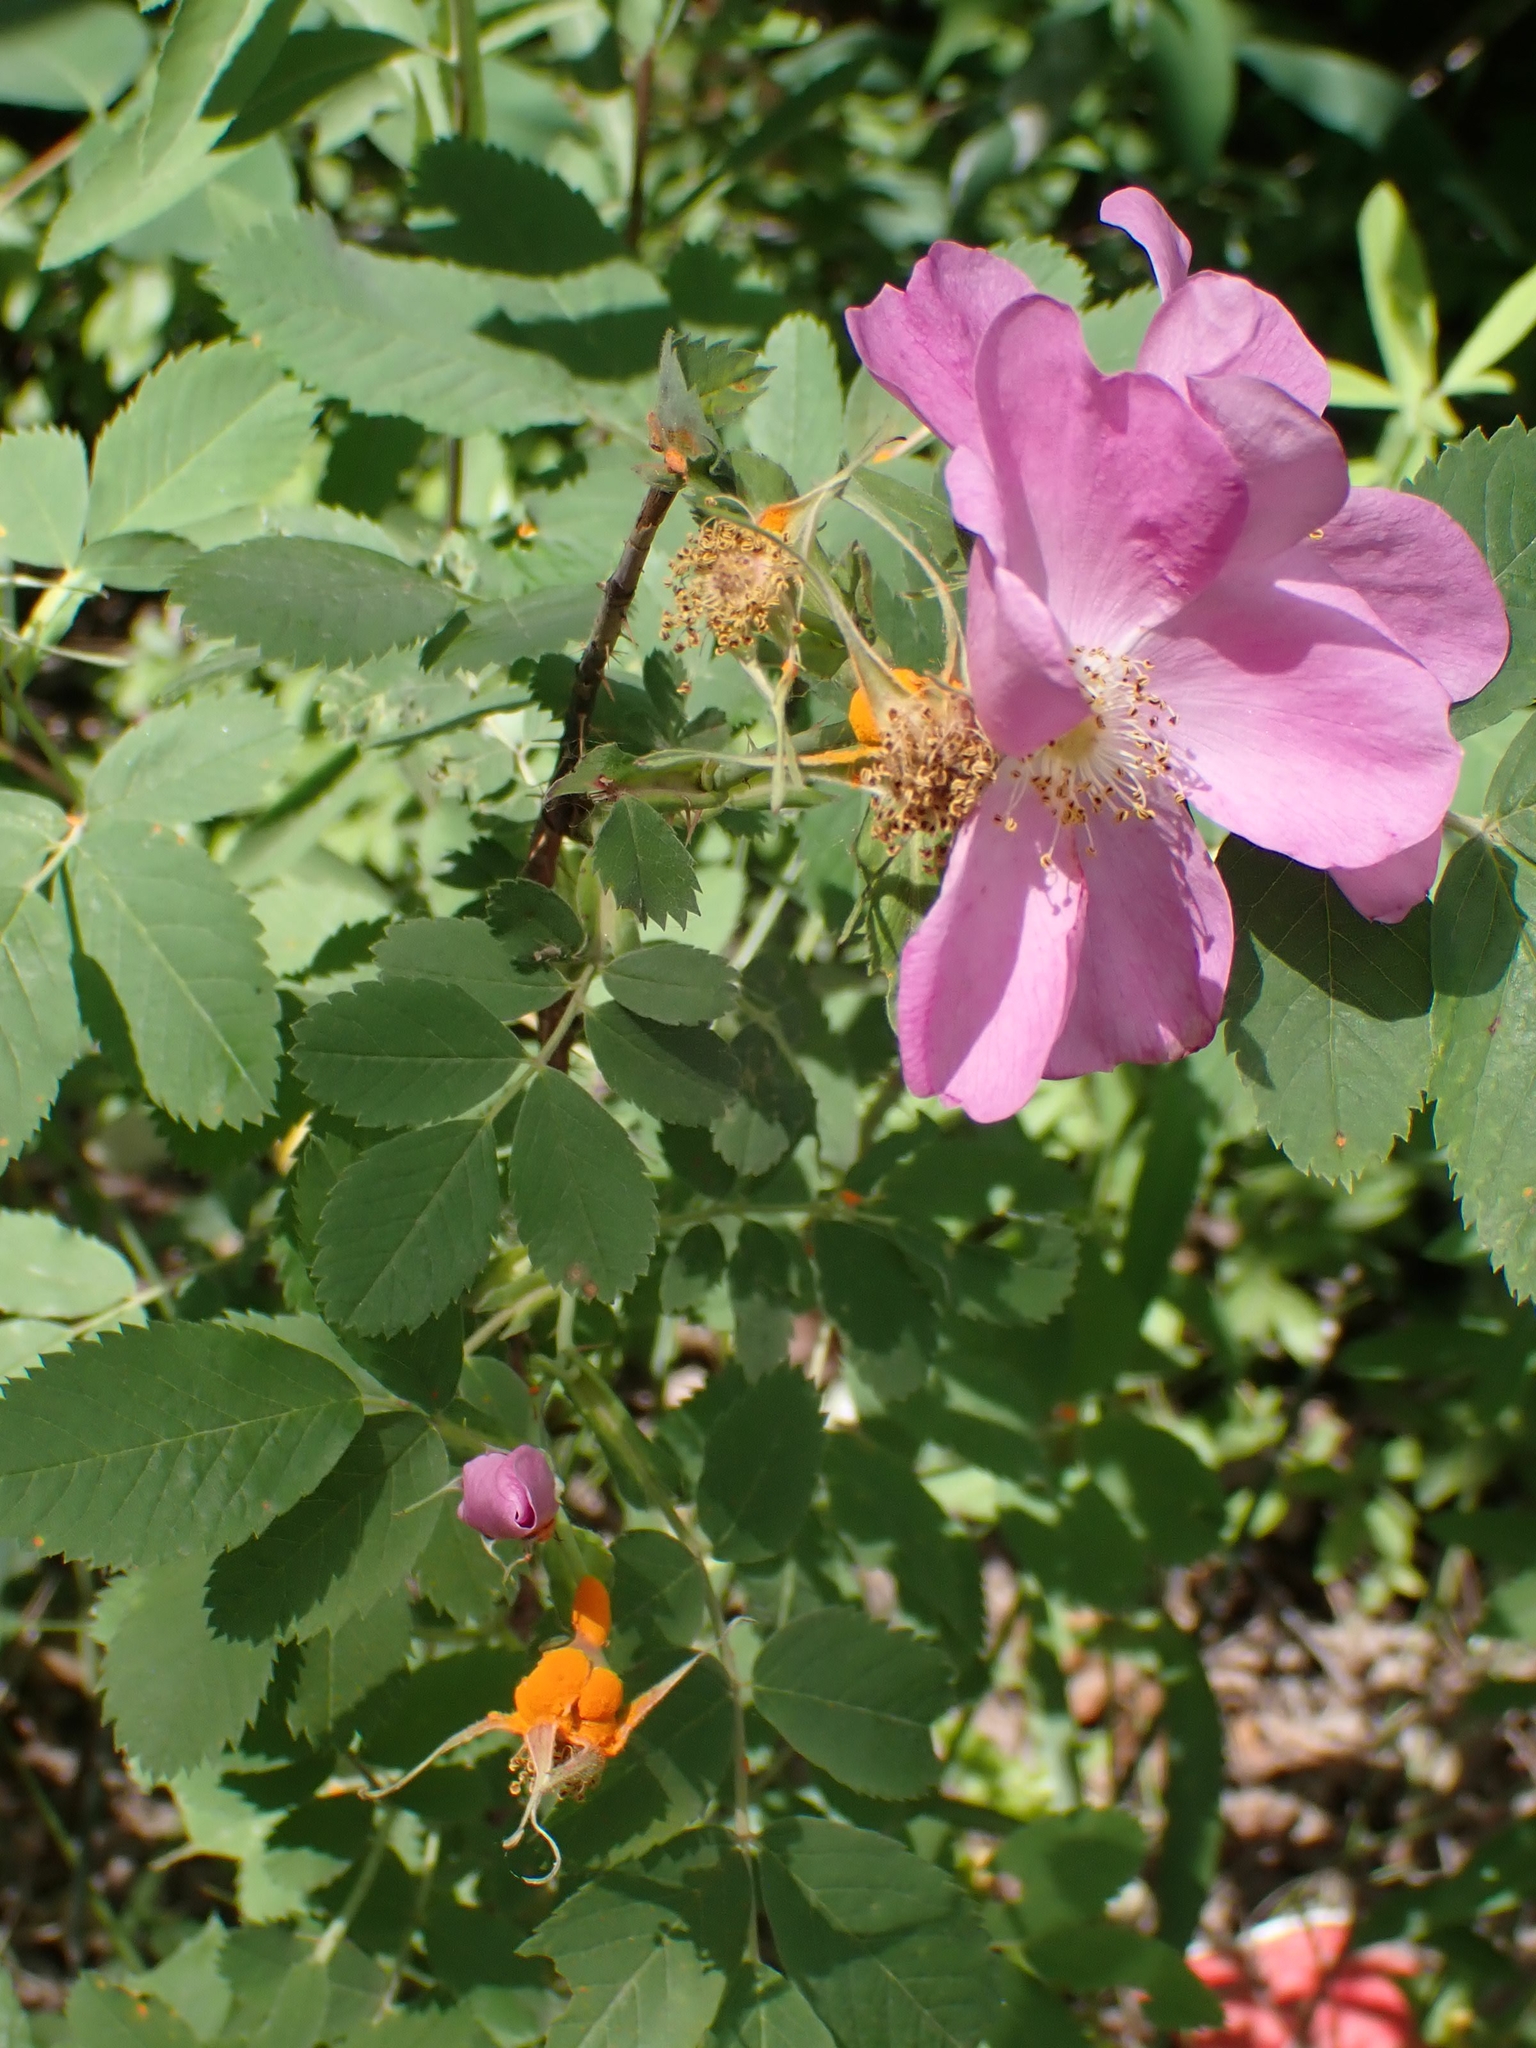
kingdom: Plantae
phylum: Tracheophyta
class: Magnoliopsida
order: Rosales
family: Rosaceae
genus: Rosa
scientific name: Rosa woodsii
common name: Woods's rose
